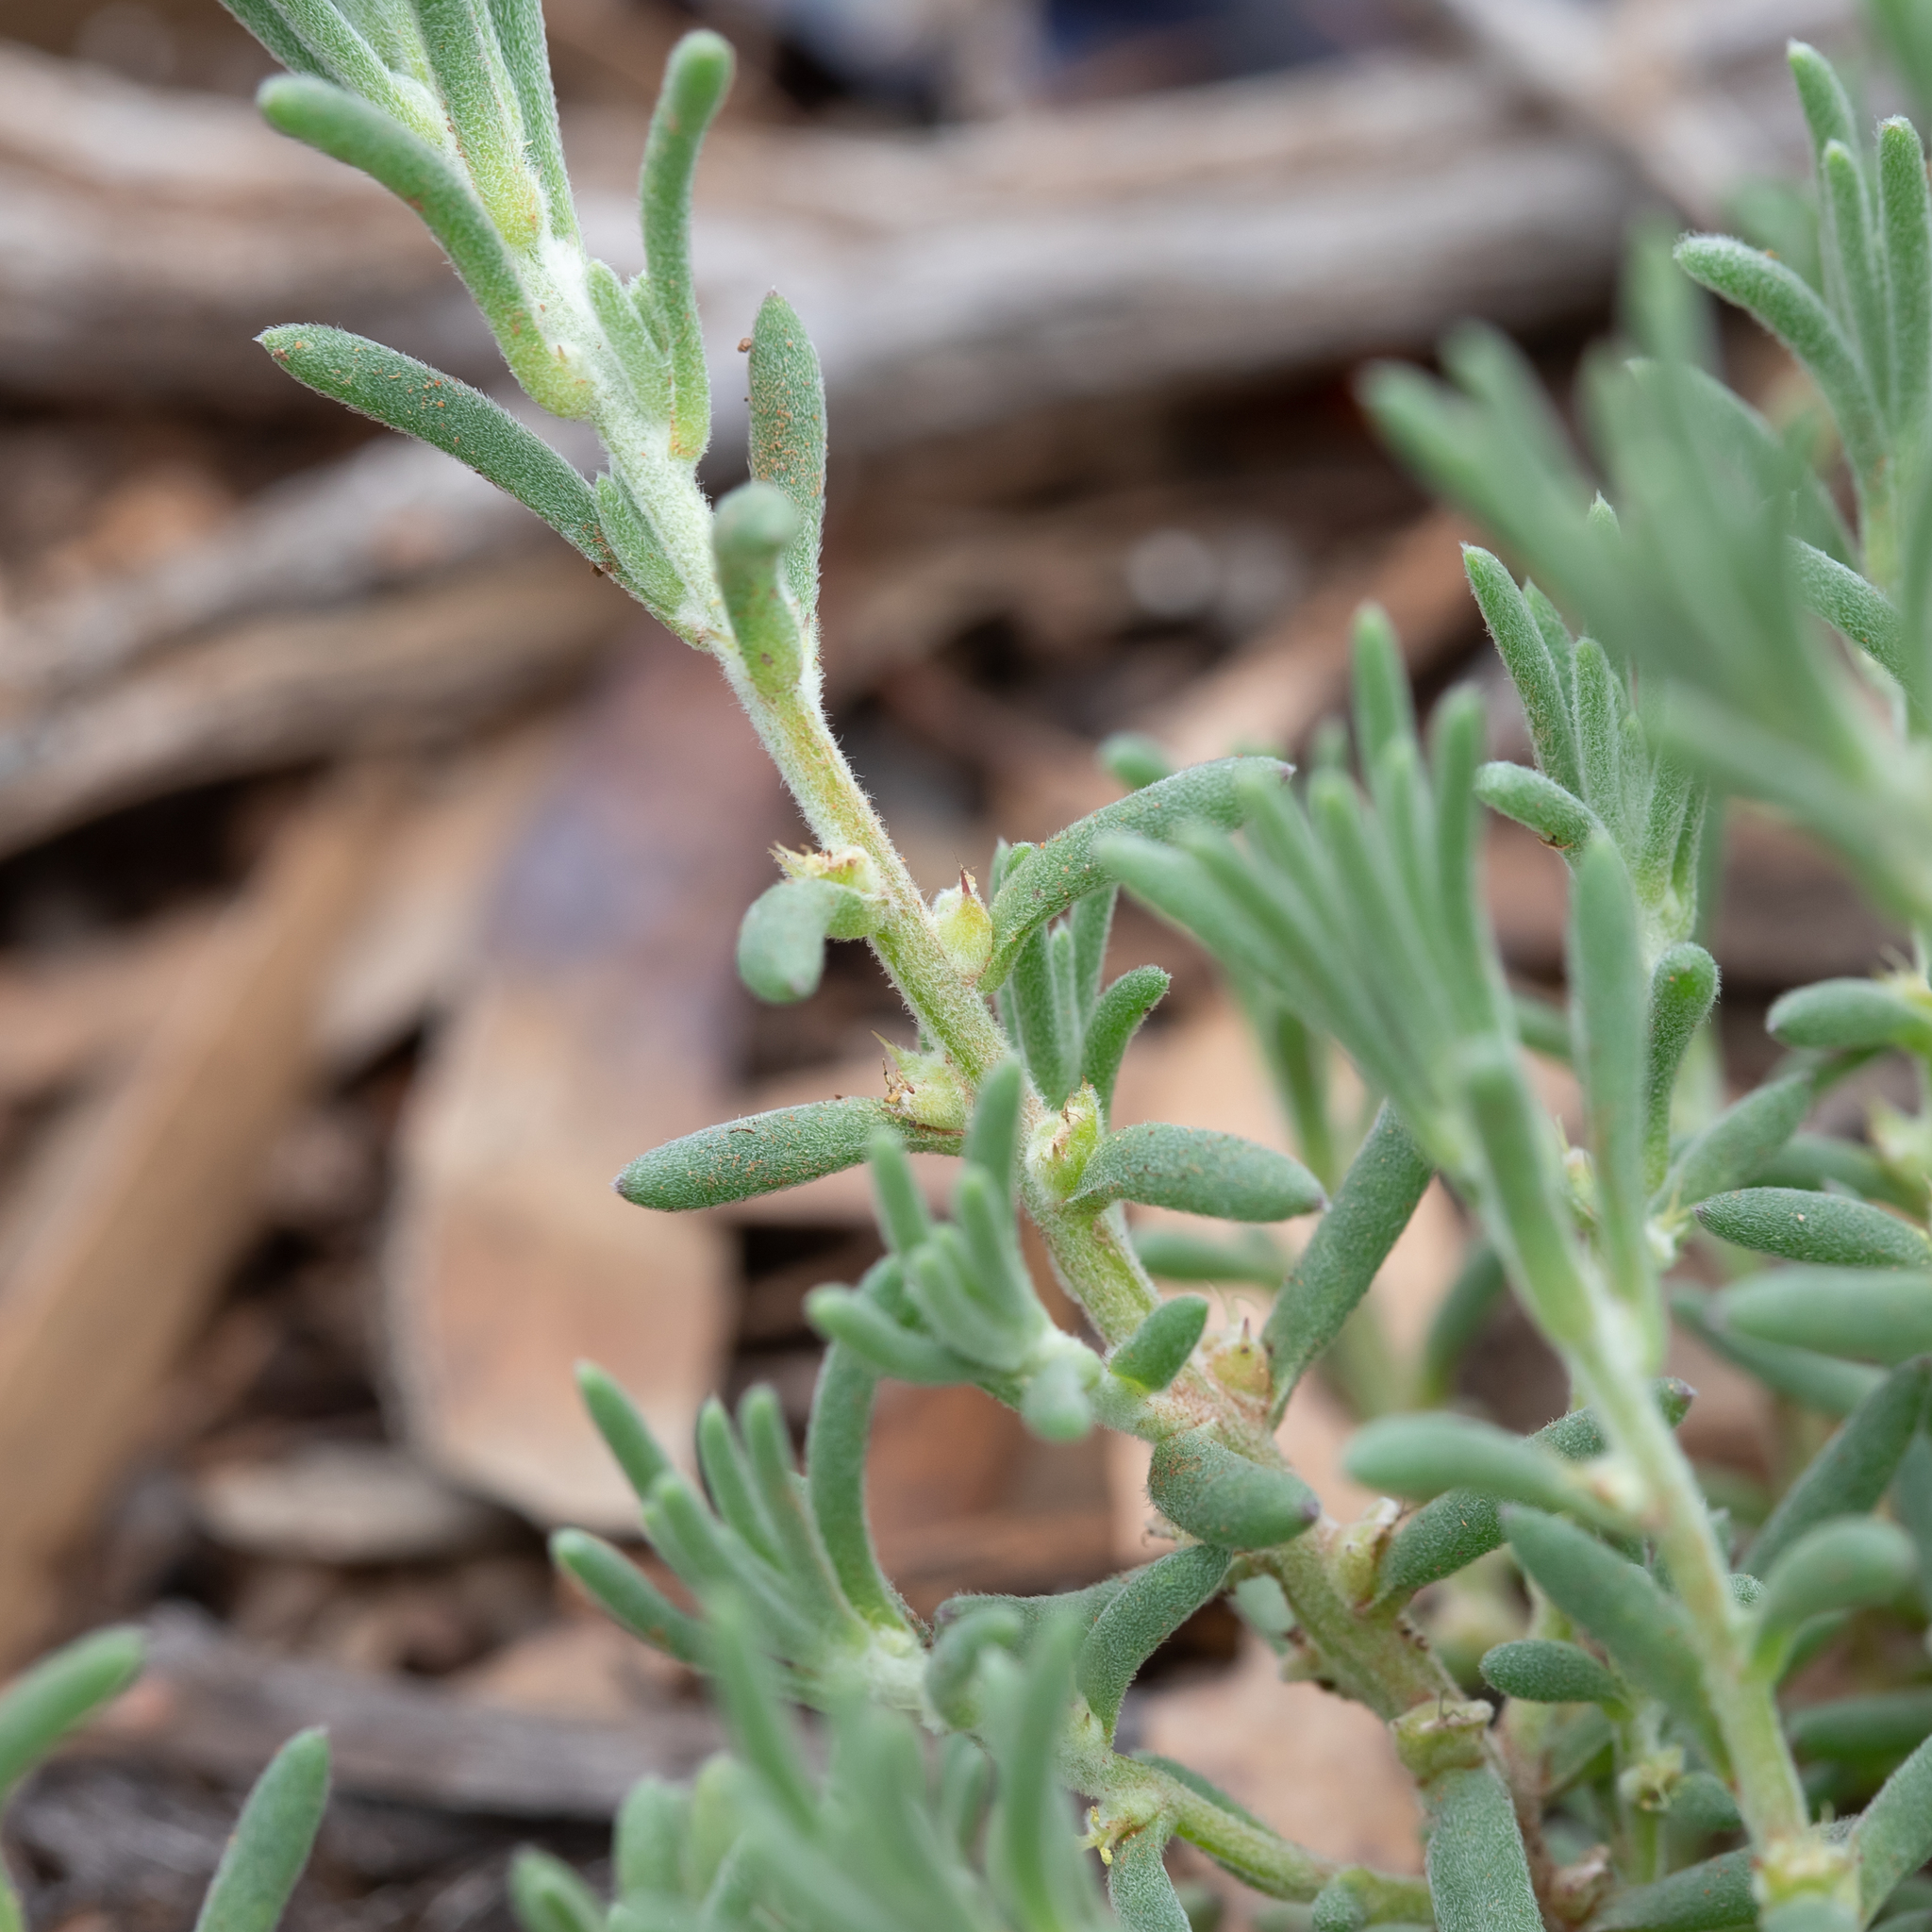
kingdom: Plantae
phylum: Tracheophyta
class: Magnoliopsida
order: Caryophyllales
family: Amaranthaceae
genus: Sclerolaena
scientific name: Sclerolaena diacantha
